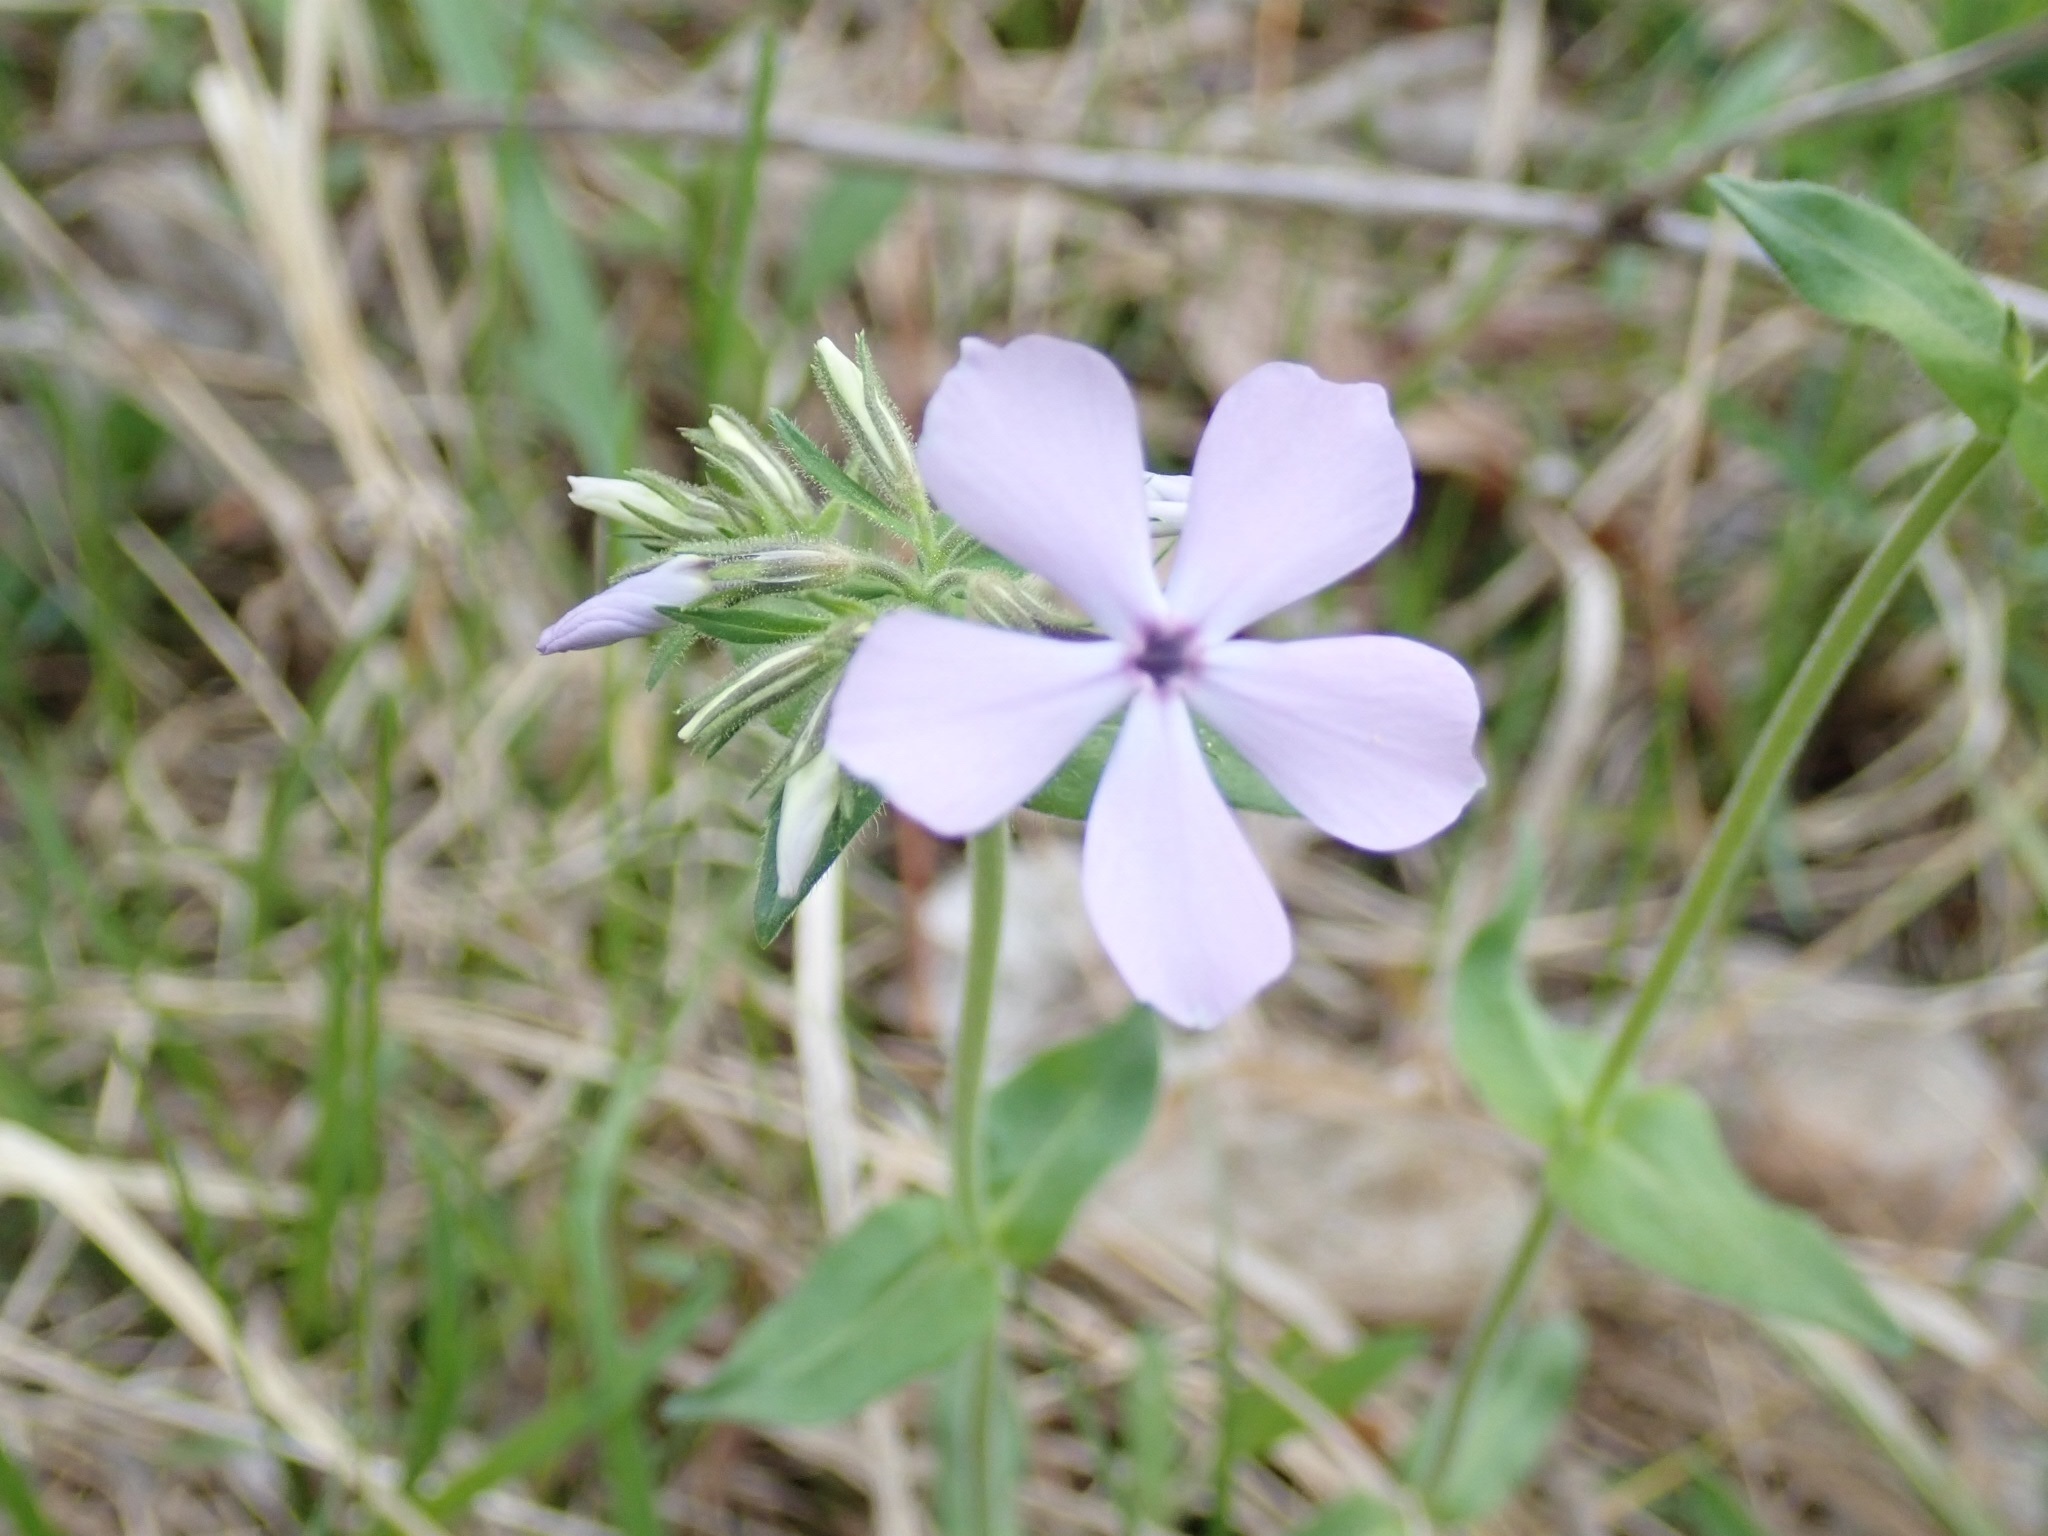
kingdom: Plantae
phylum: Tracheophyta
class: Magnoliopsida
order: Ericales
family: Polemoniaceae
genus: Phlox
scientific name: Phlox divaricata
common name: Blue phlox
